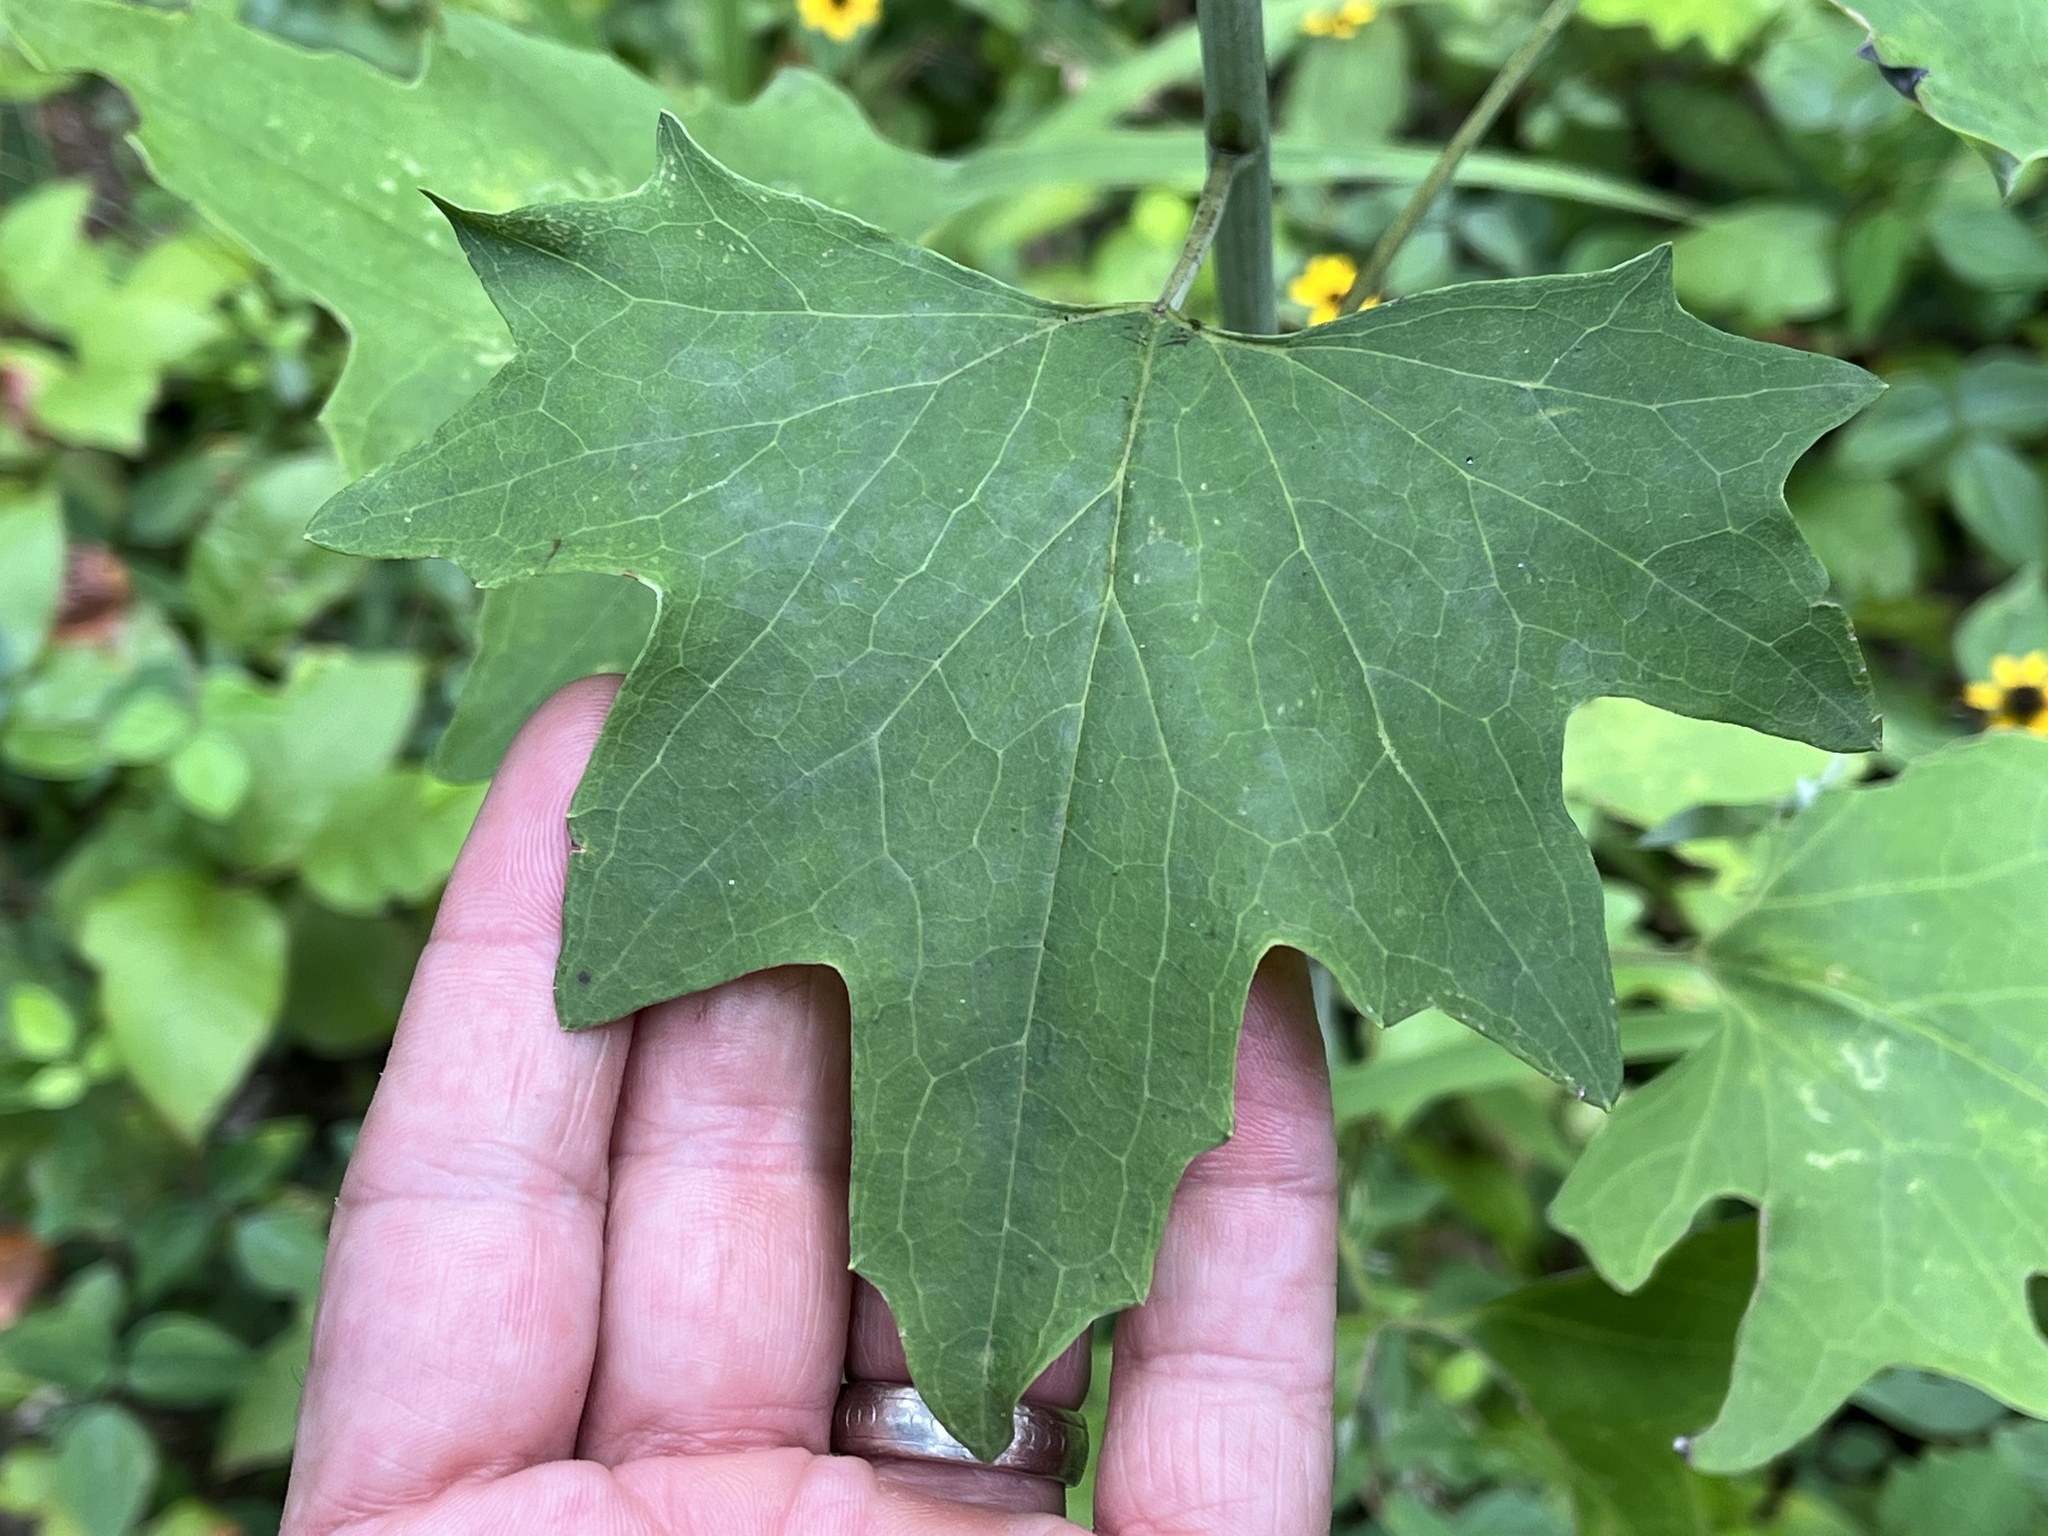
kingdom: Plantae
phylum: Tracheophyta
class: Magnoliopsida
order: Asterales
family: Asteraceae
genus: Arnoglossum
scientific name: Arnoglossum atriplicifolium
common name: Pale indian-plantain
